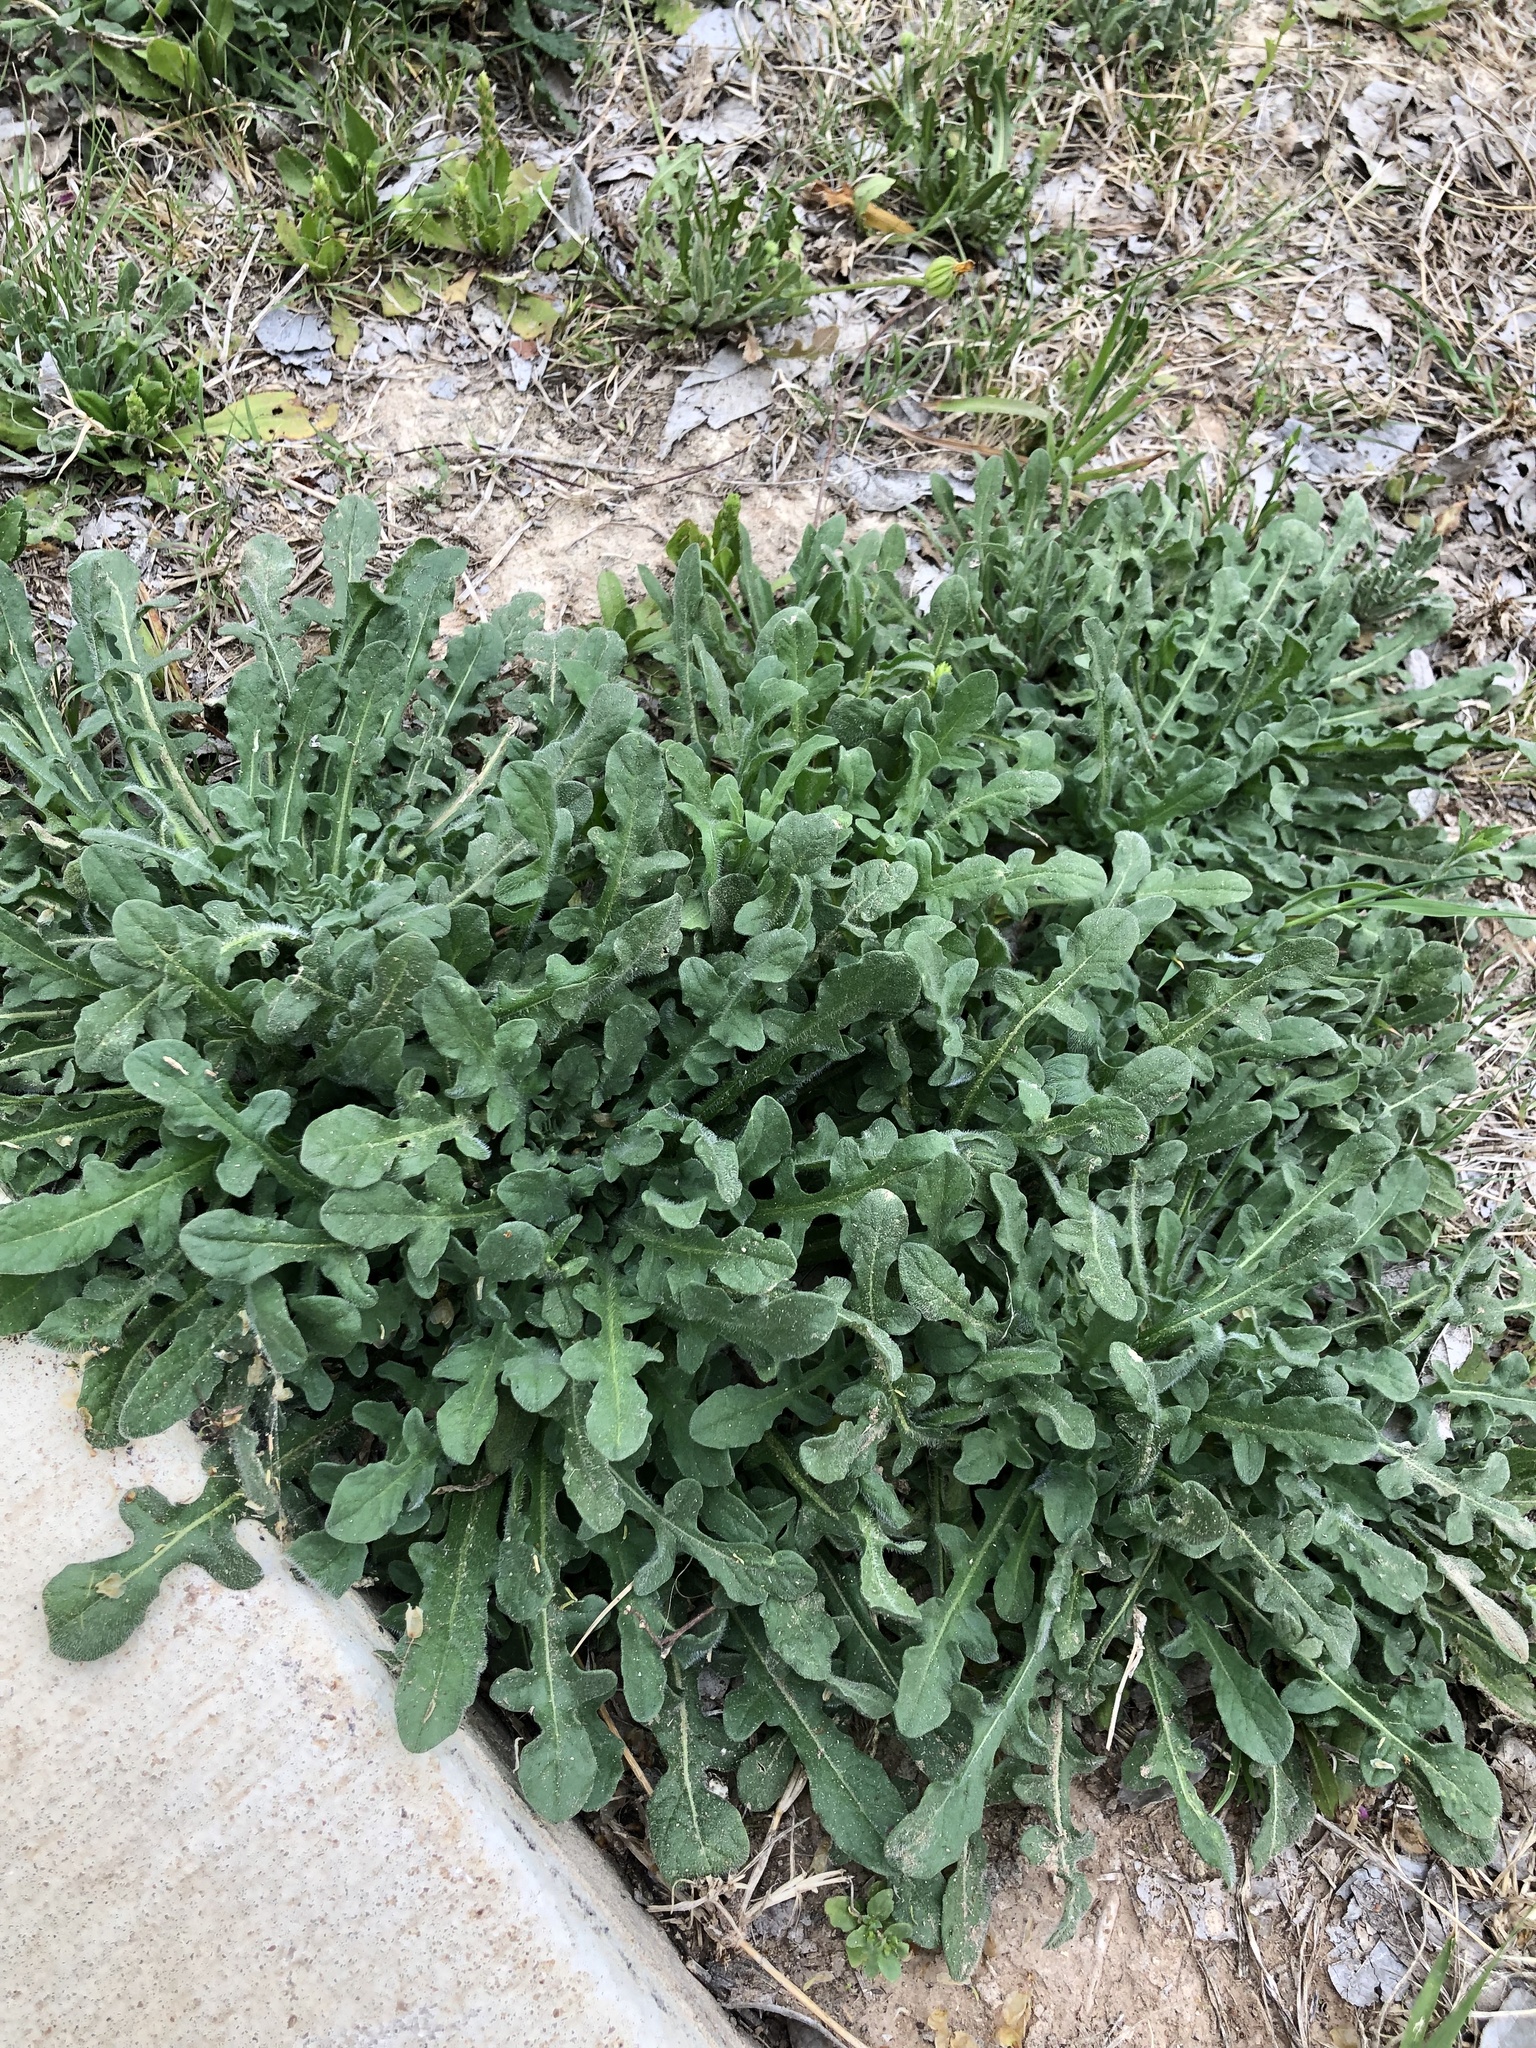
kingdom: Plantae
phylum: Tracheophyta
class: Magnoliopsida
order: Asterales
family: Asteraceae
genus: Centaurea
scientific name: Centaurea melitensis
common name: Maltese star-thistle
